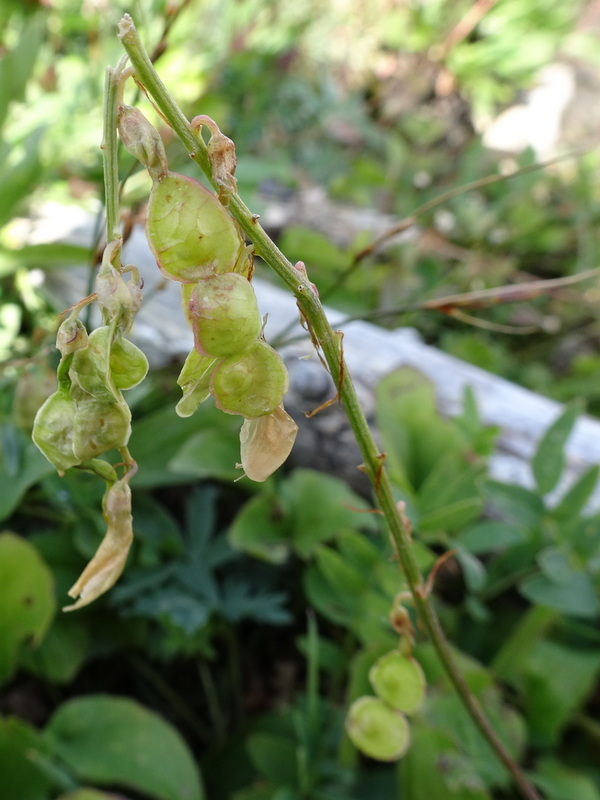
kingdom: Plantae
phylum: Tracheophyta
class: Magnoliopsida
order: Fabales
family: Fabaceae
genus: Hedysarum
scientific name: Hedysarum sulphurescens
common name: Sulphur hedysarum
